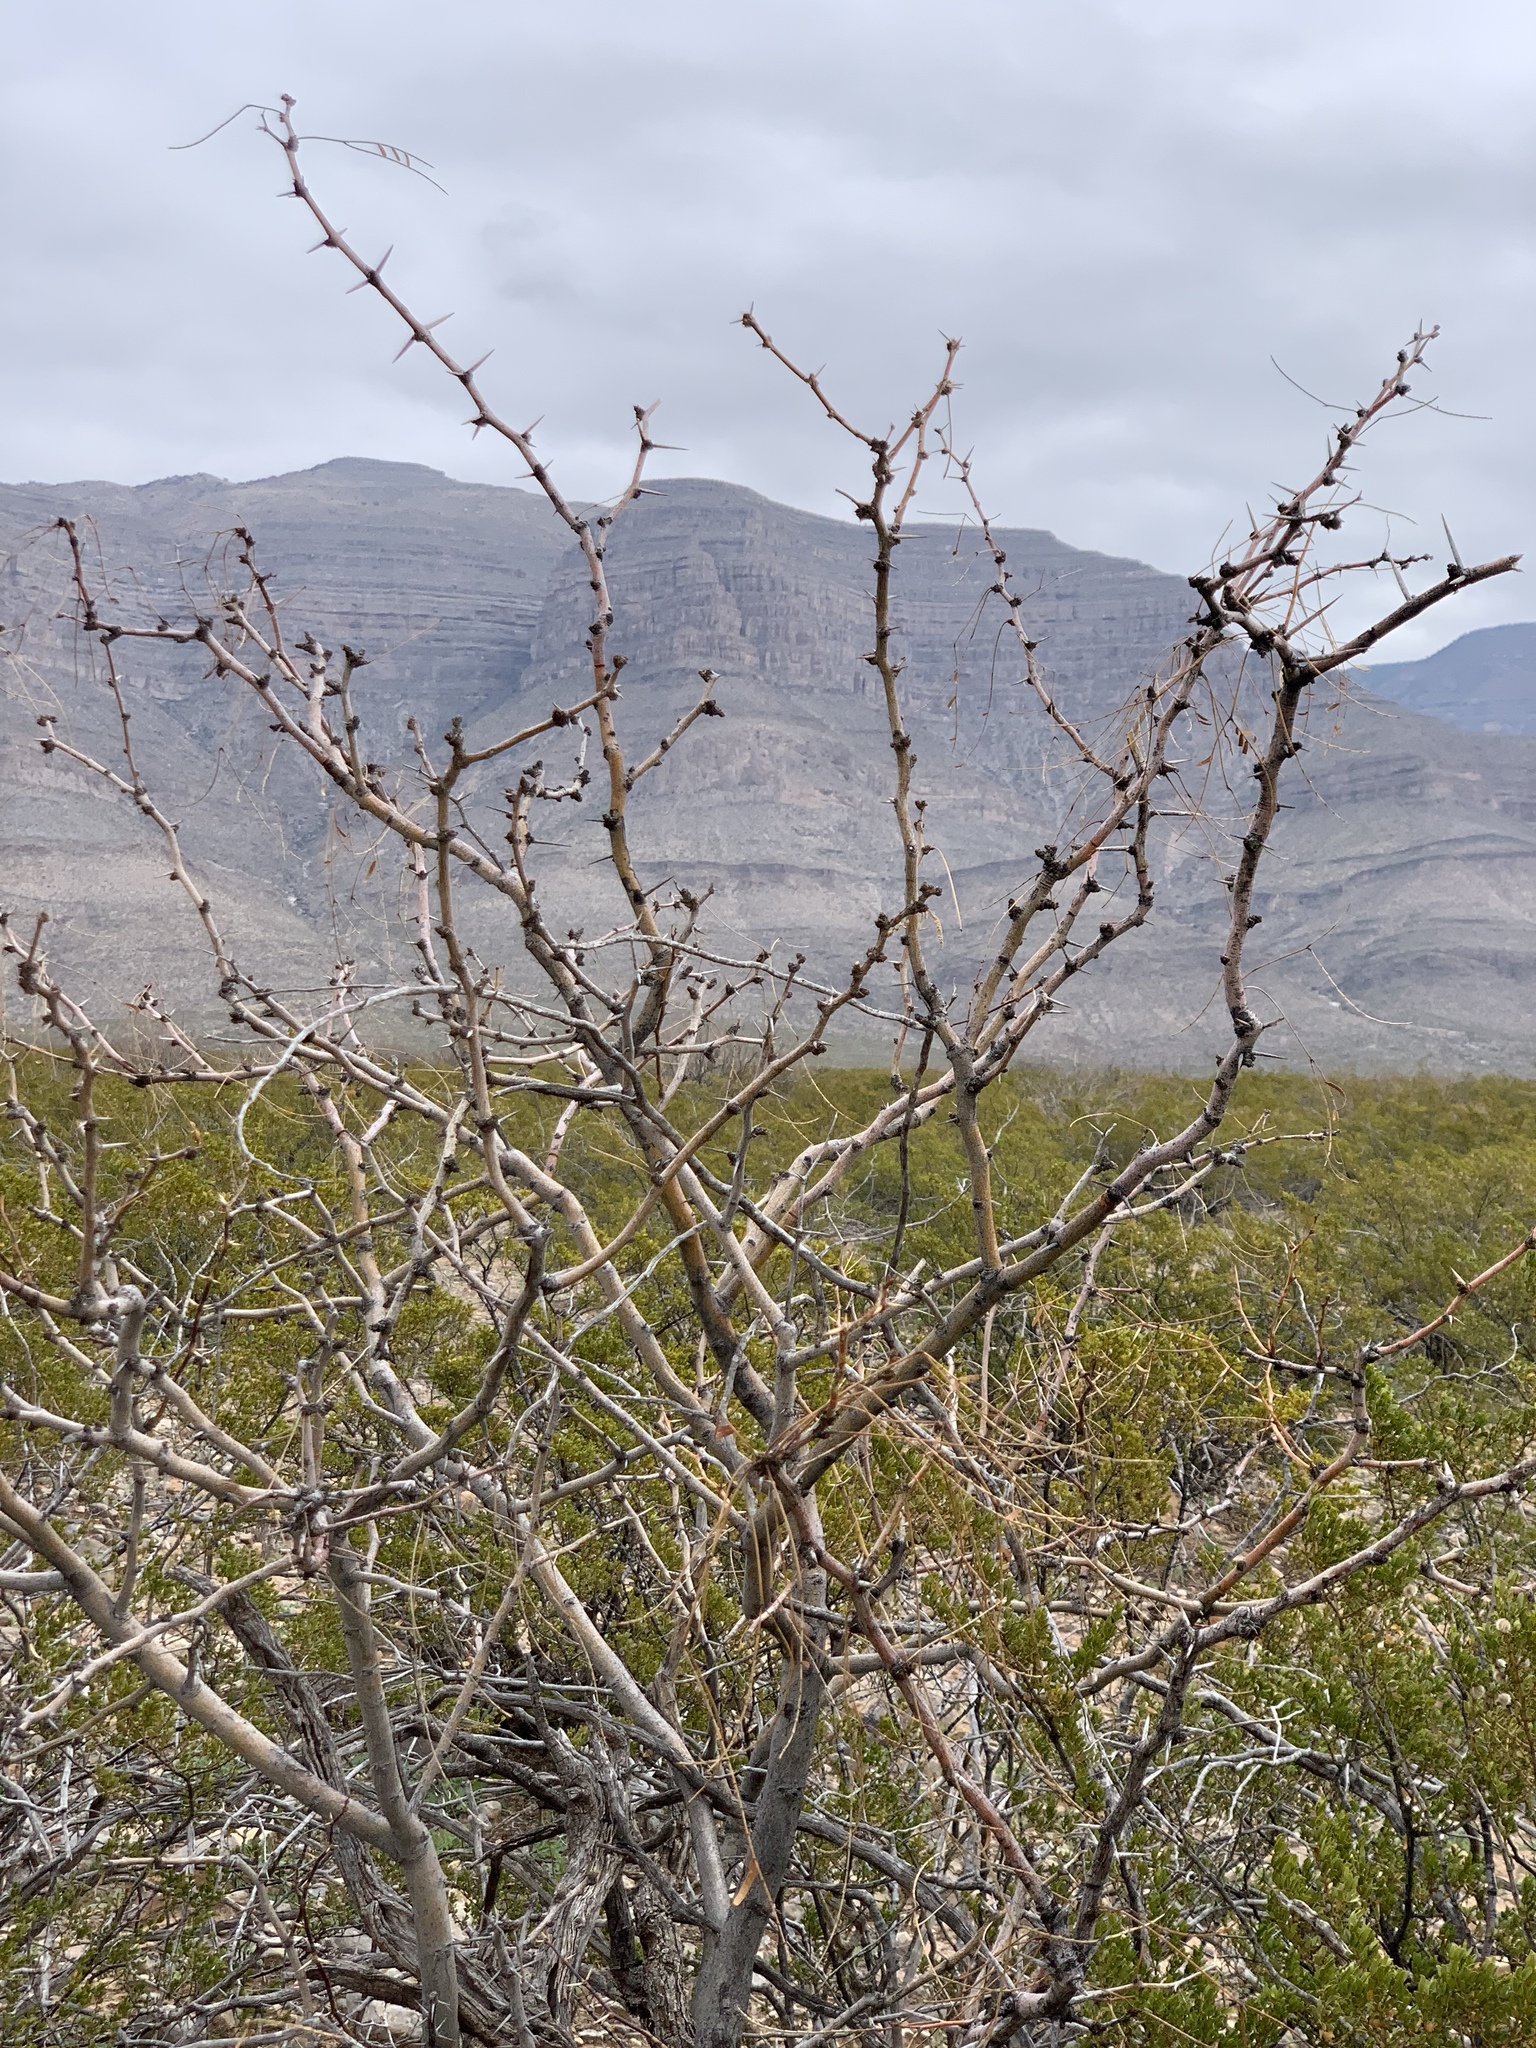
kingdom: Plantae
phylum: Tracheophyta
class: Magnoliopsida
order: Fabales
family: Fabaceae
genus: Prosopis
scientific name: Prosopis glandulosa
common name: Honey mesquite
